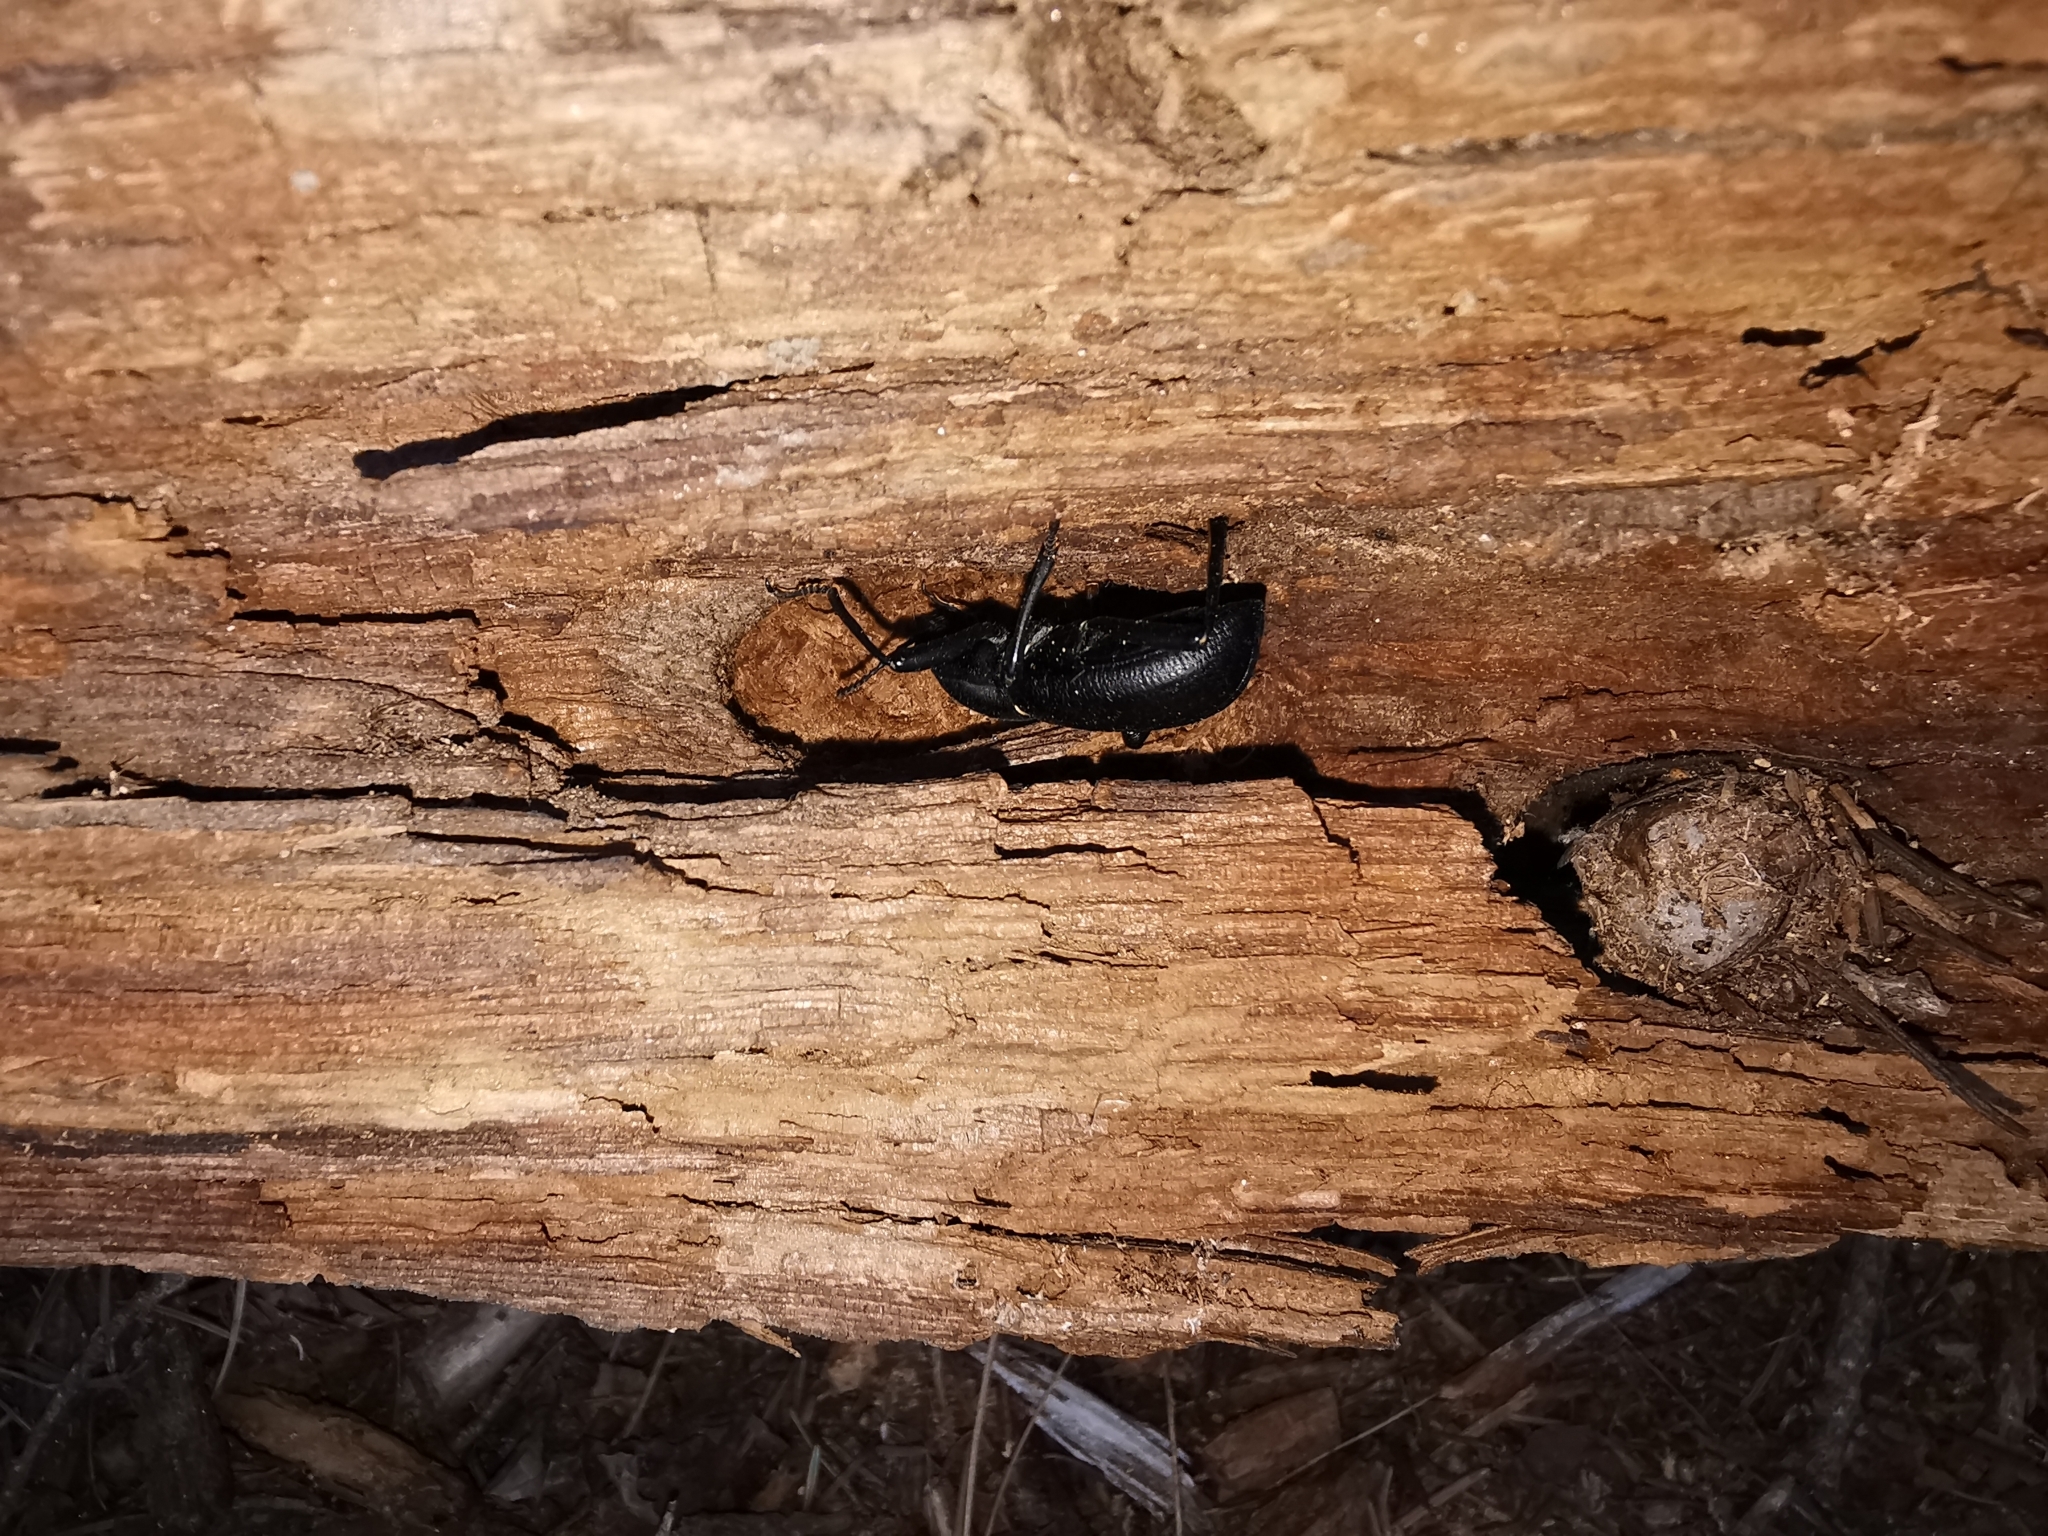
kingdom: Animalia
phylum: Arthropoda
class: Insecta
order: Coleoptera
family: Tenebrionidae
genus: Coelocnemis
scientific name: Coelocnemis dilaticollis
